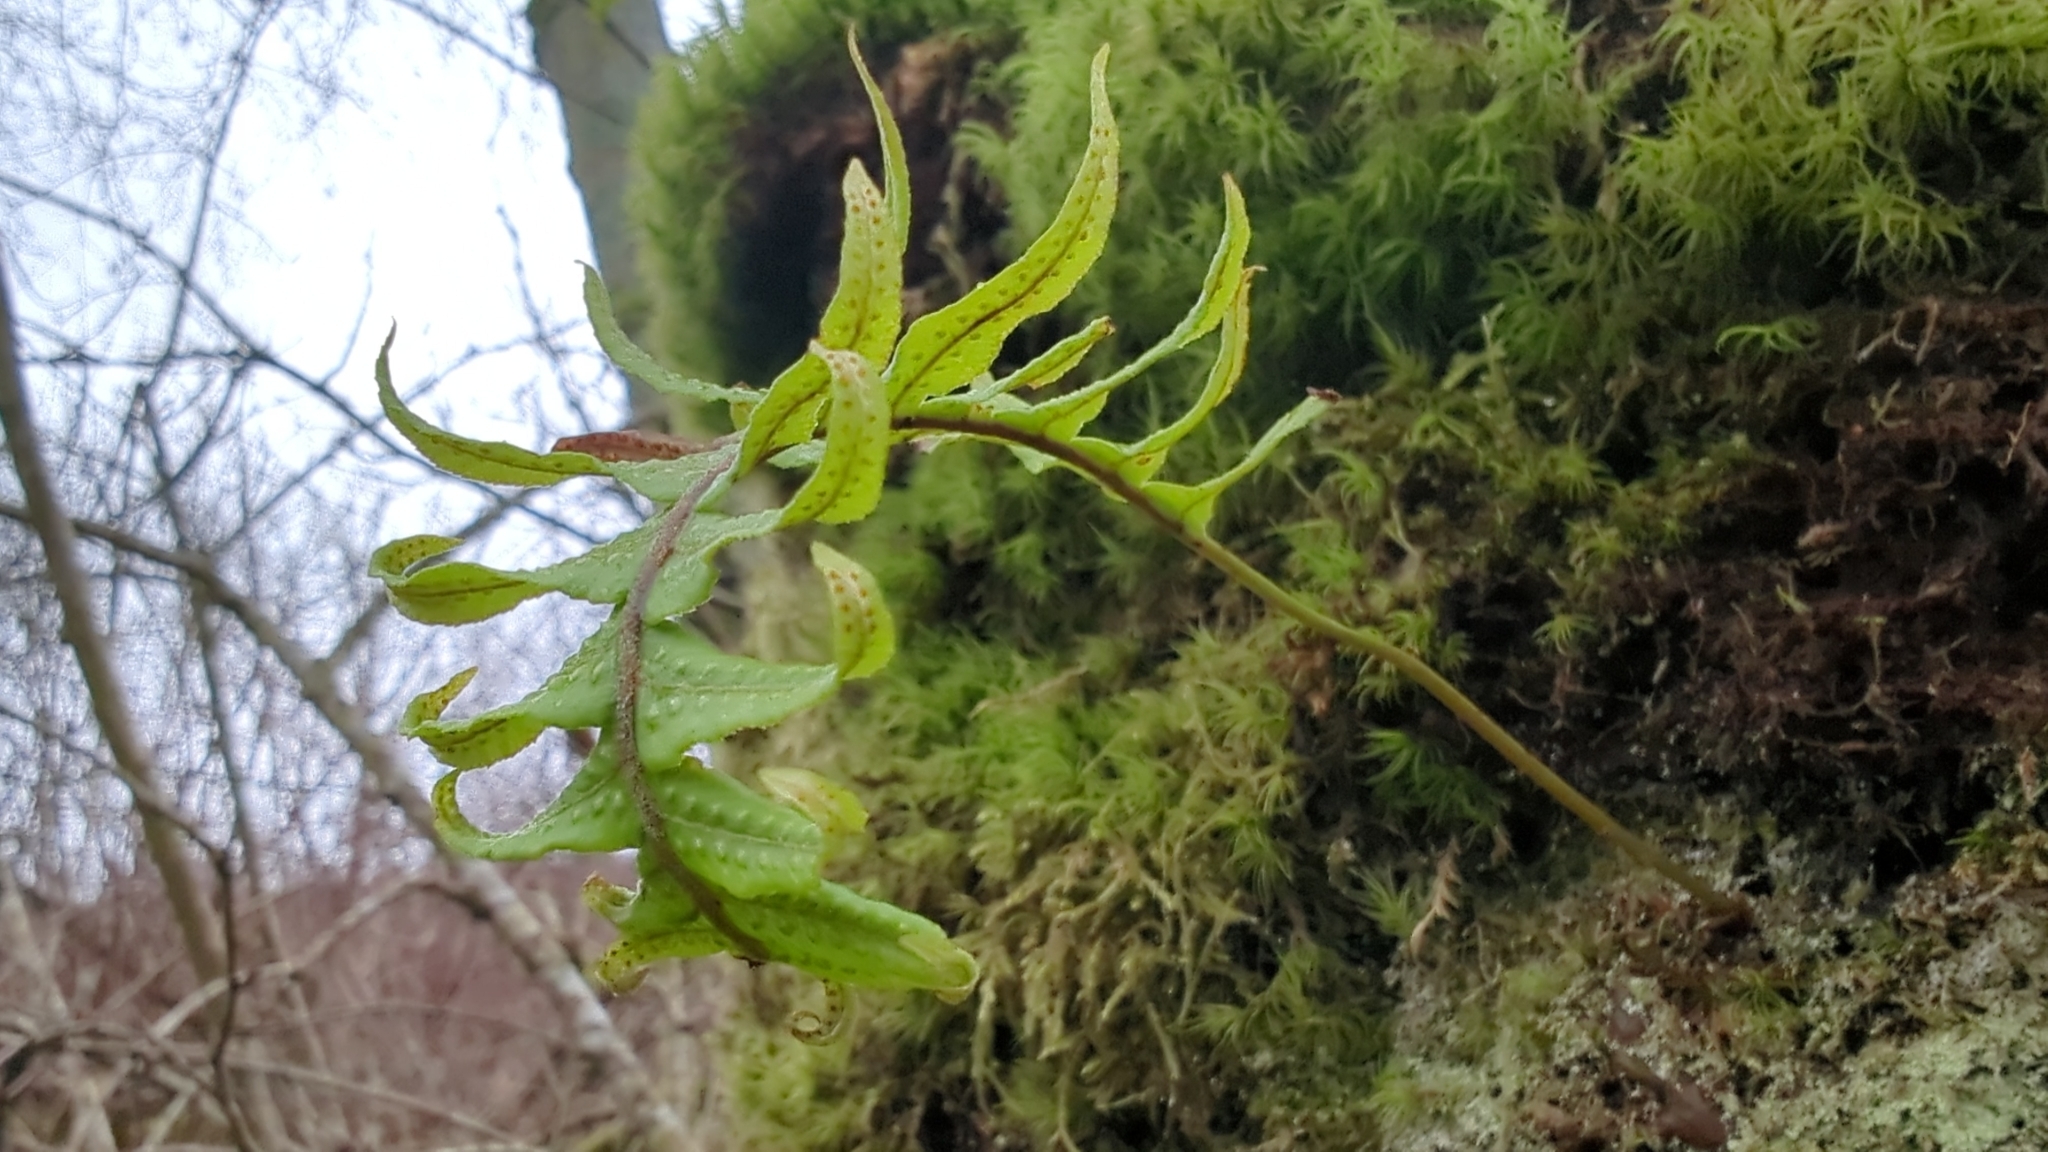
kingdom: Plantae
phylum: Tracheophyta
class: Polypodiopsida
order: Polypodiales
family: Polypodiaceae
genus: Polypodium
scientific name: Polypodium glycyrrhiza
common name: Licorice fern
